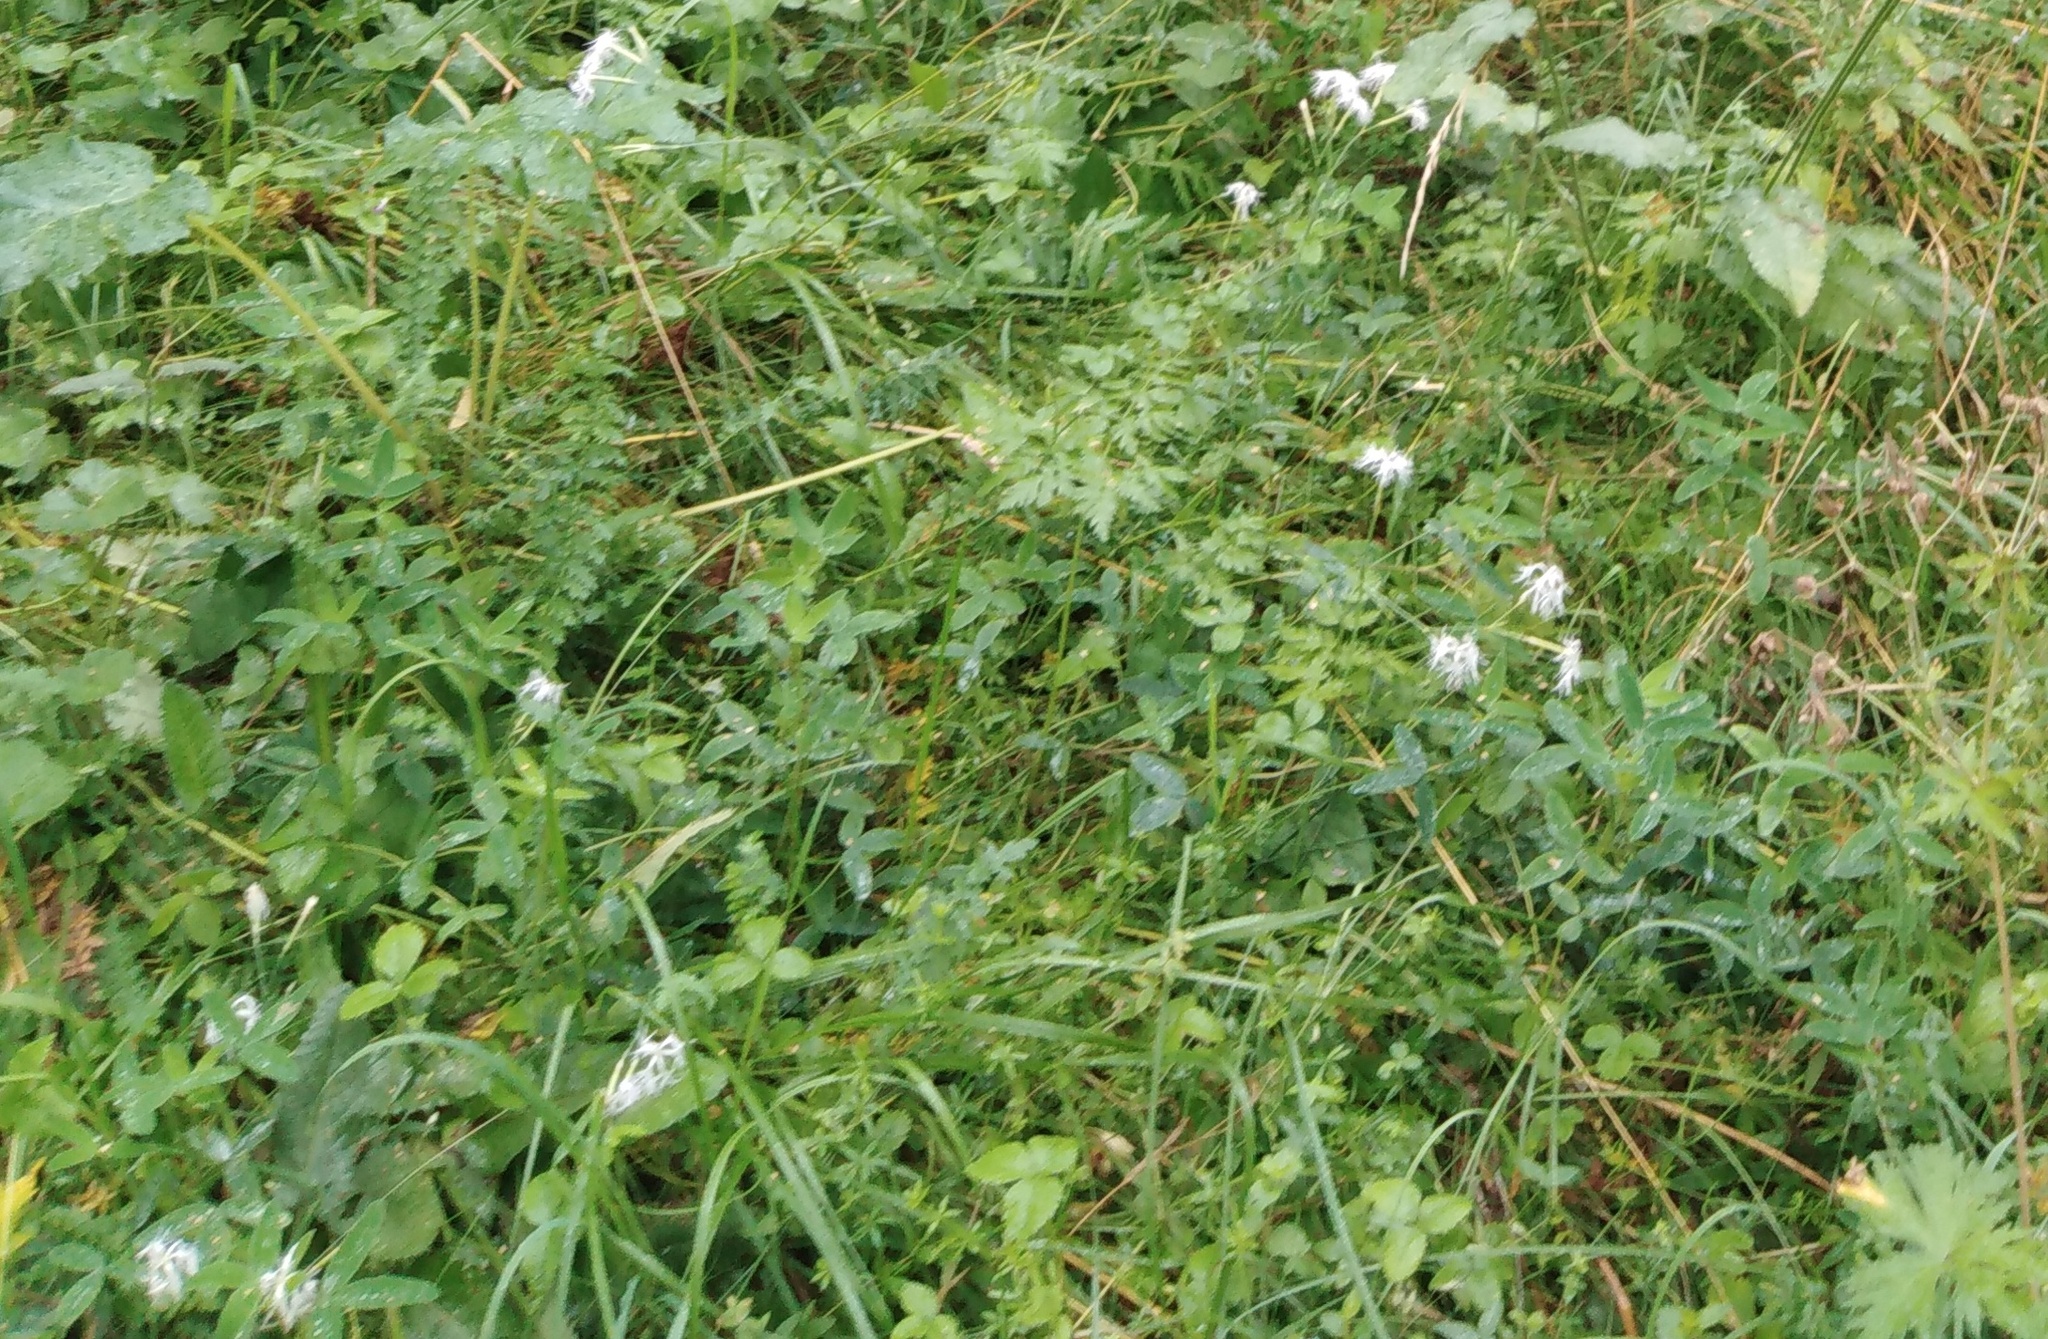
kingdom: Plantae
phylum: Tracheophyta
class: Magnoliopsida
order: Caryophyllales
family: Caryophyllaceae
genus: Dianthus
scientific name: Dianthus superbus
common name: Fringed pink
